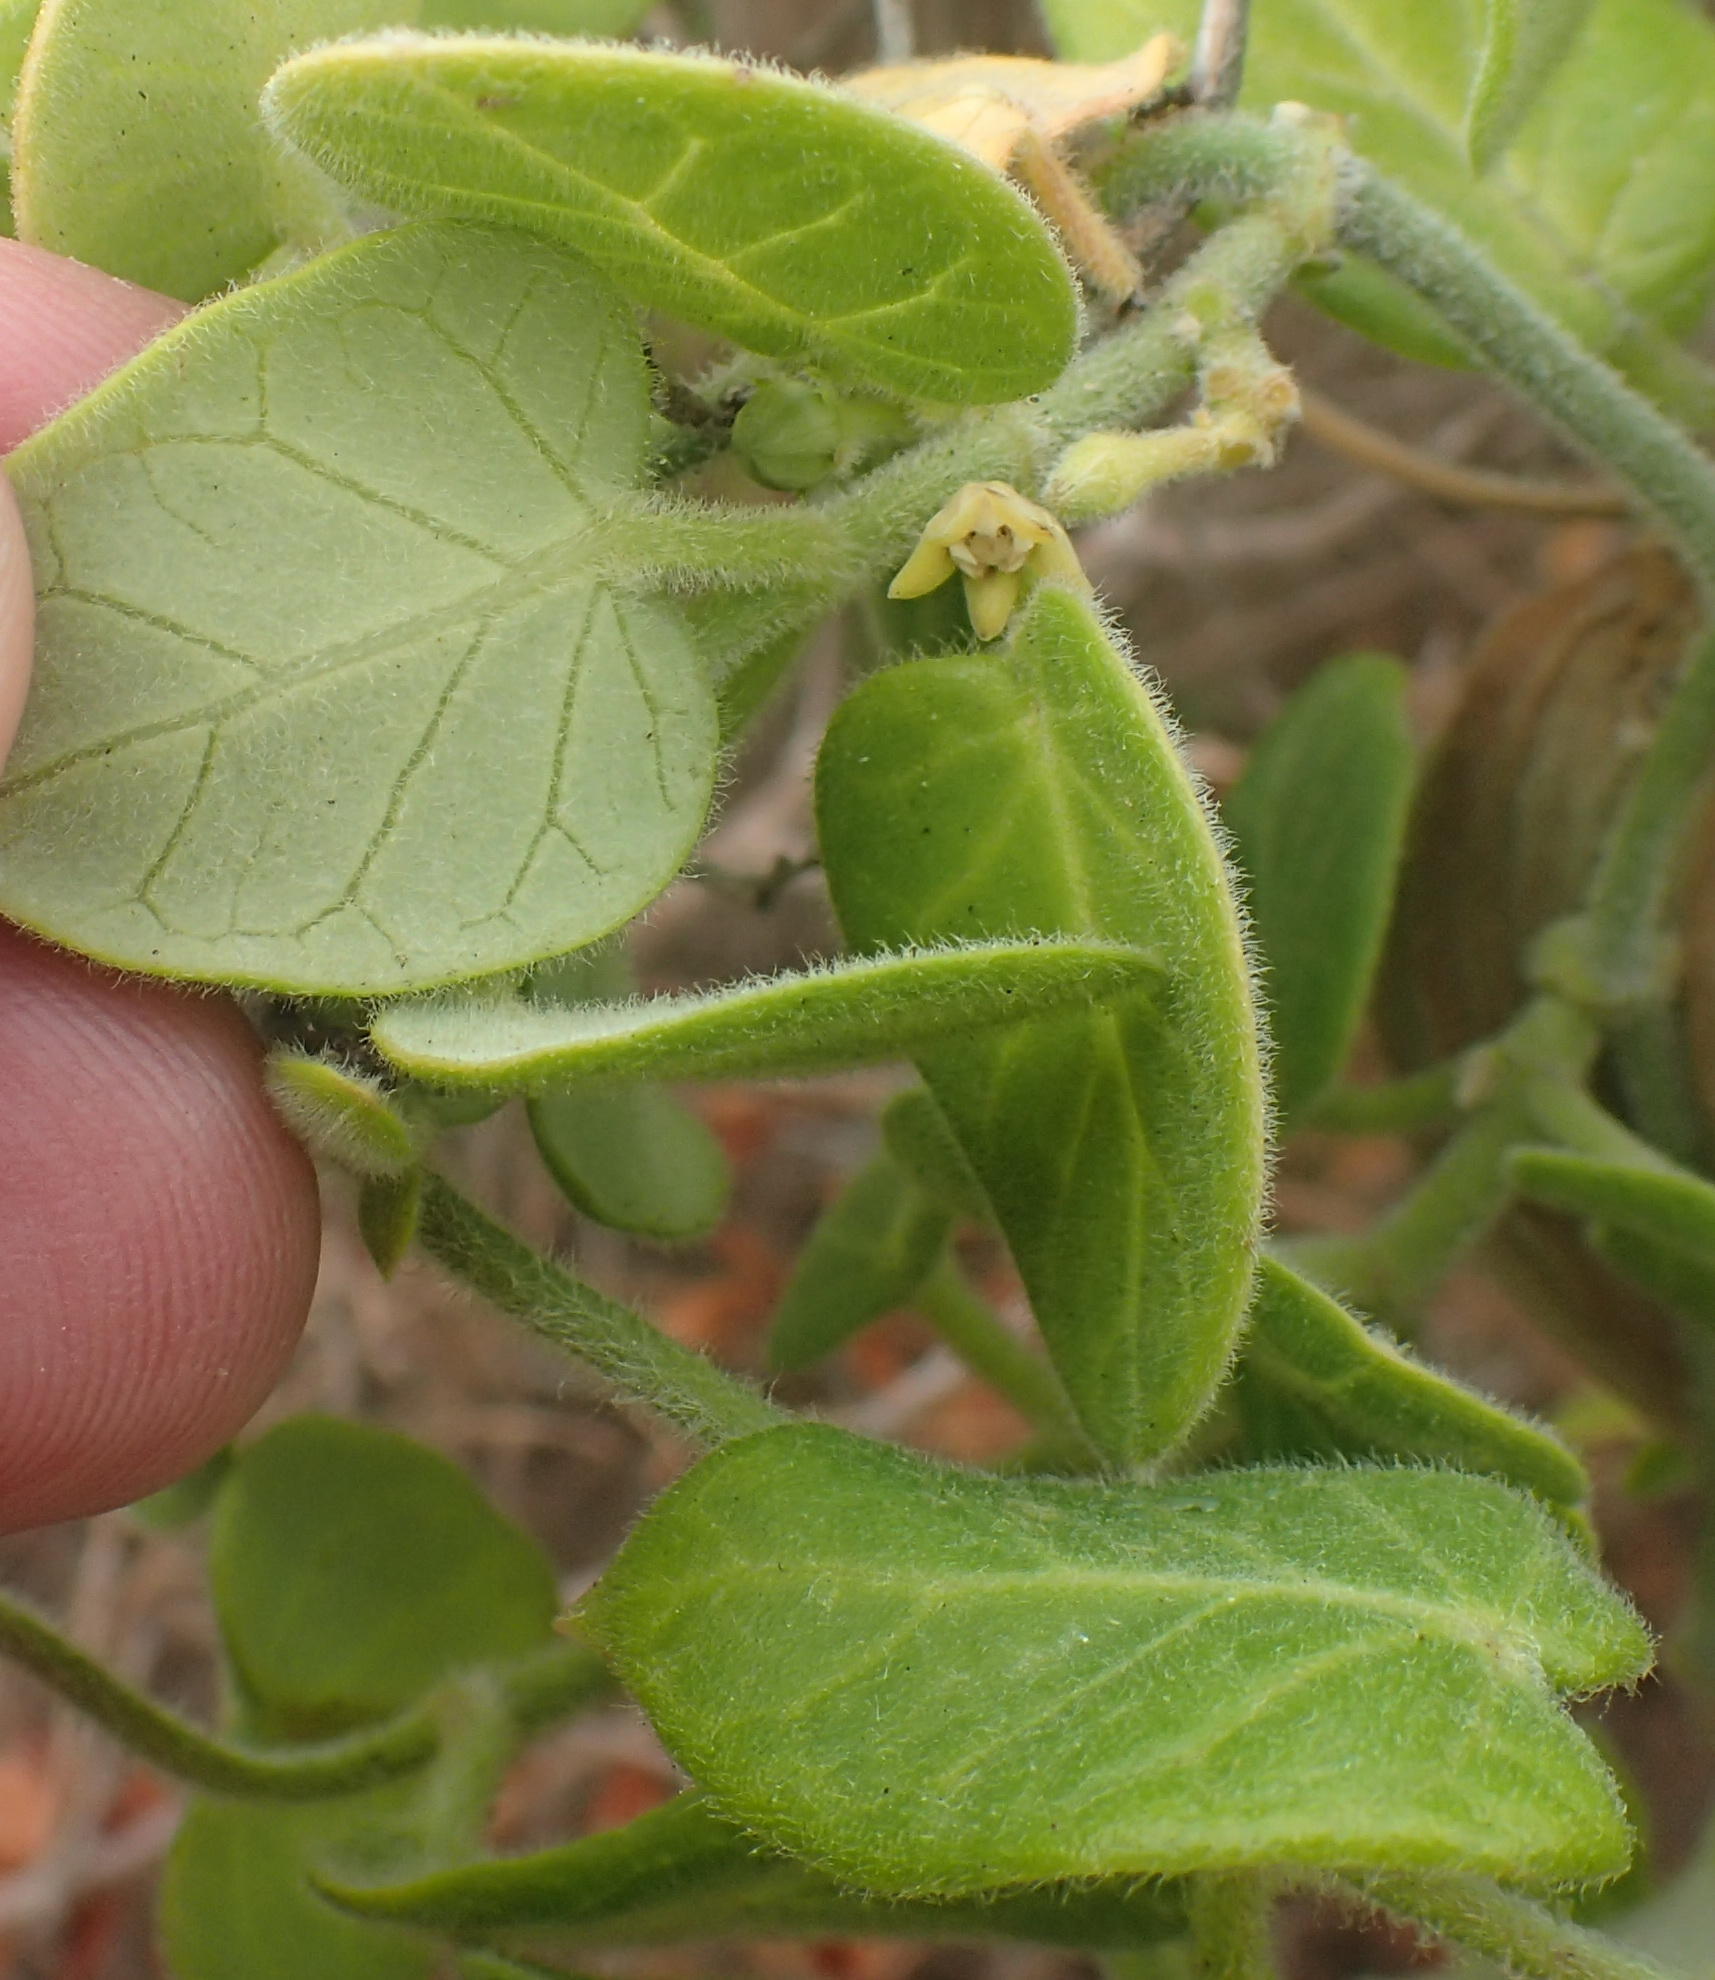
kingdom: Plantae
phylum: Tracheophyta
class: Magnoliopsida
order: Gentianales
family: Apocynaceae
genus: Cynanchum
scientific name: Cynanchum obtusifolium
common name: Monkey-rope
